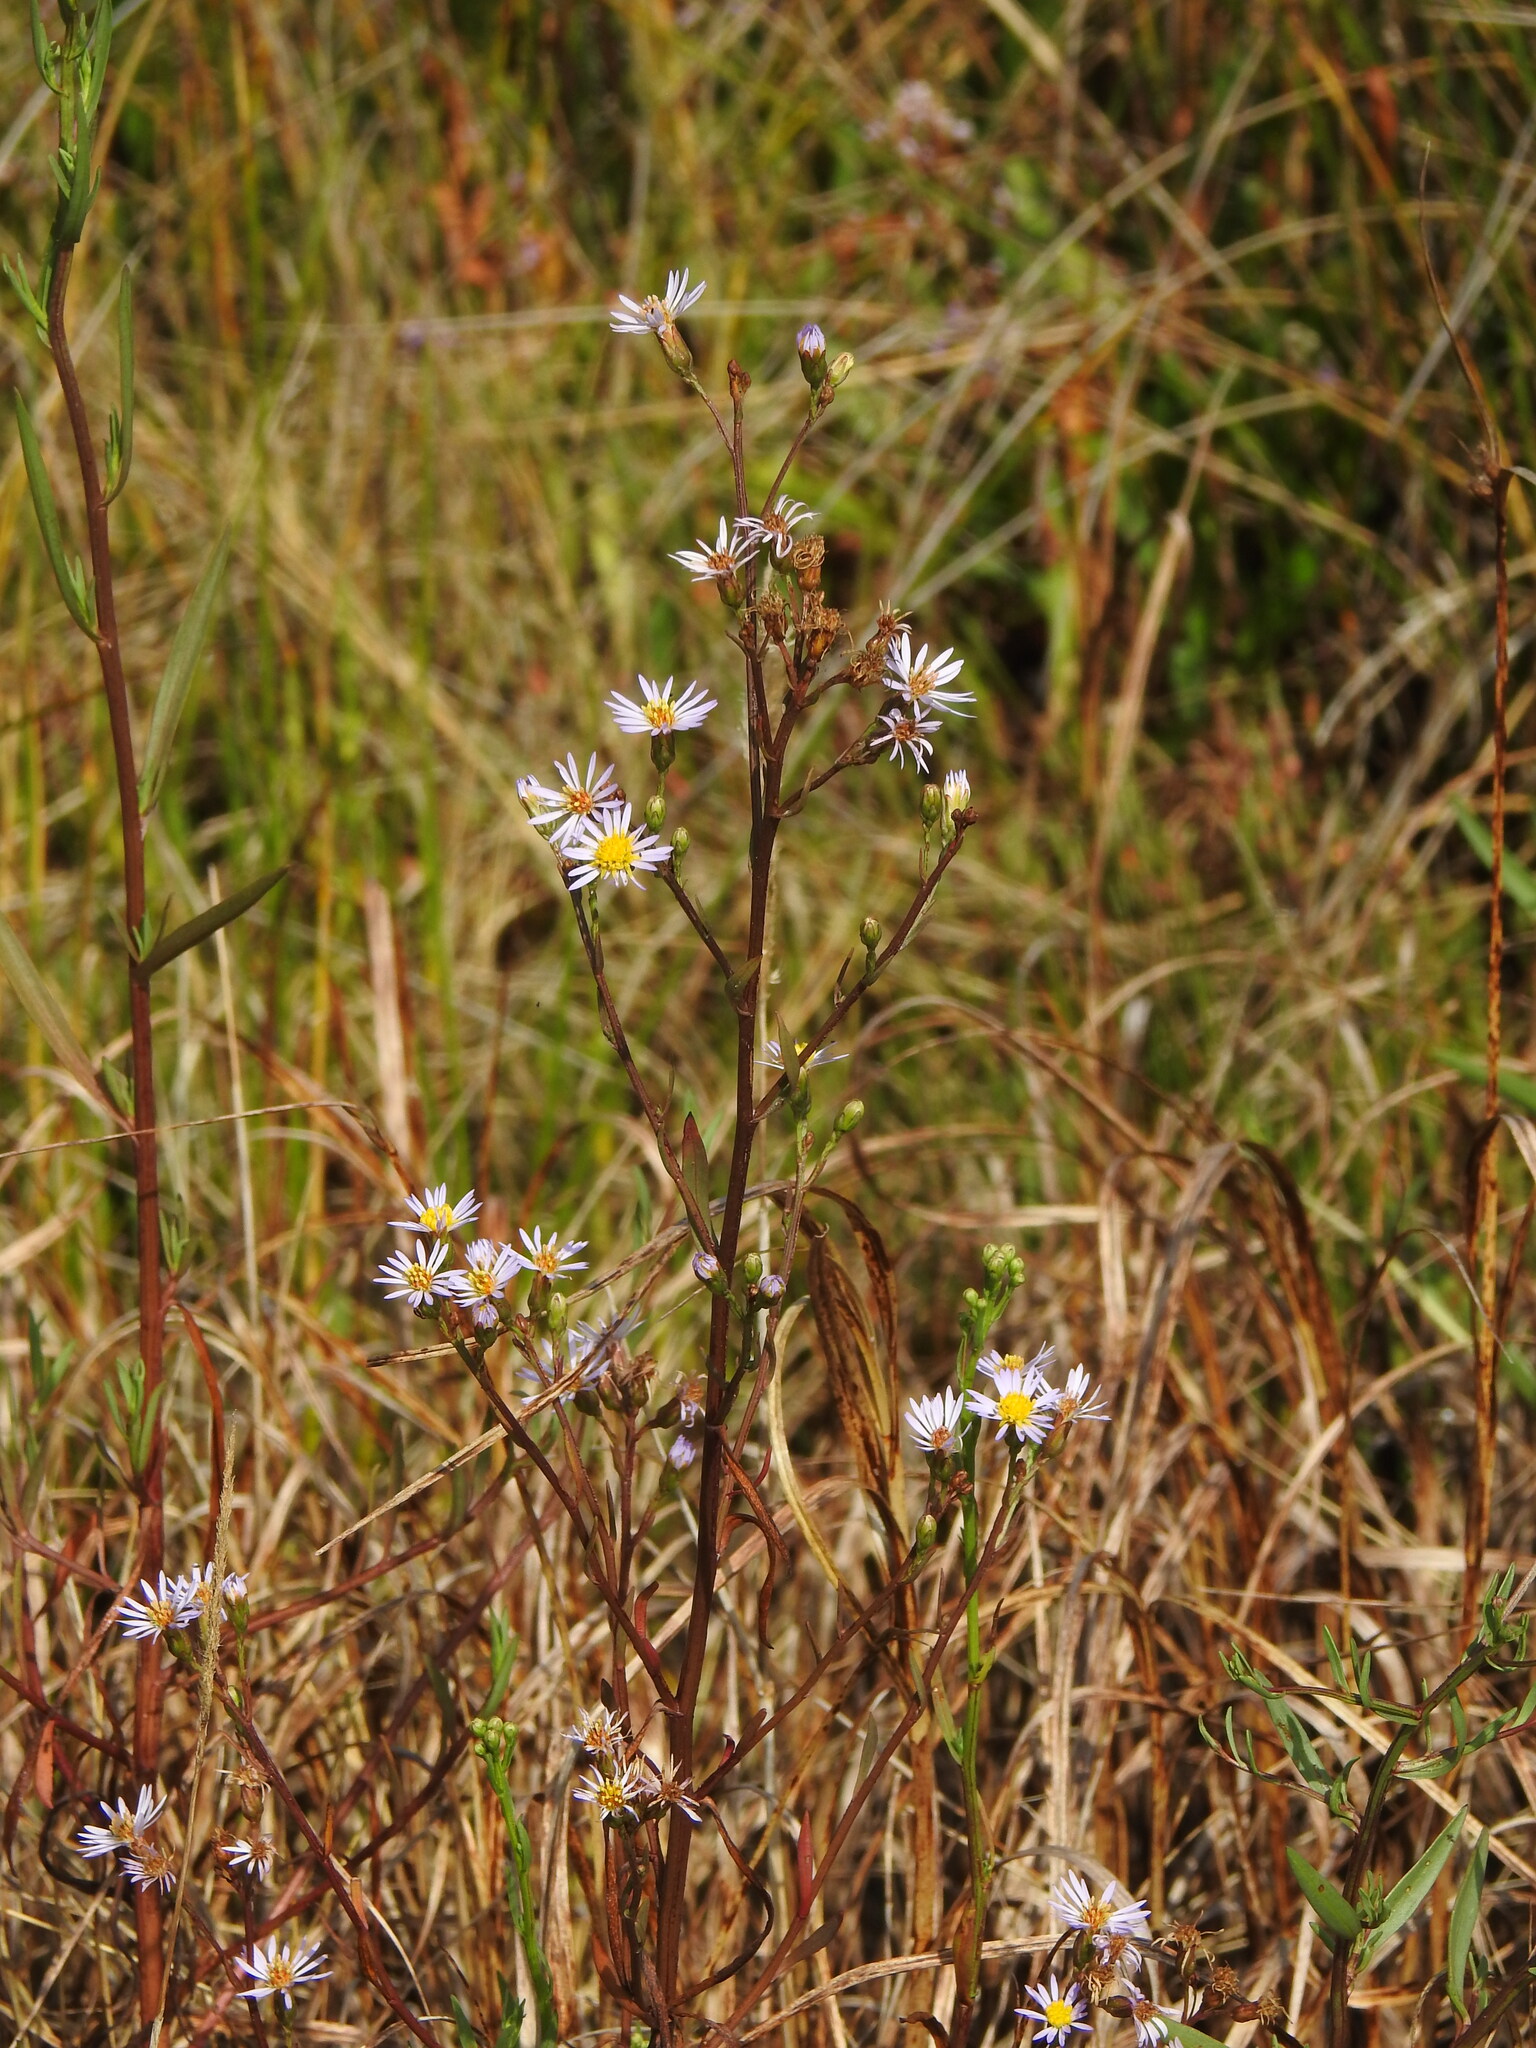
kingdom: Plantae
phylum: Tracheophyta
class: Magnoliopsida
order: Asterales
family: Asteraceae
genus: Tripolium
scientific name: Tripolium pannonicum
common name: Sea aster
